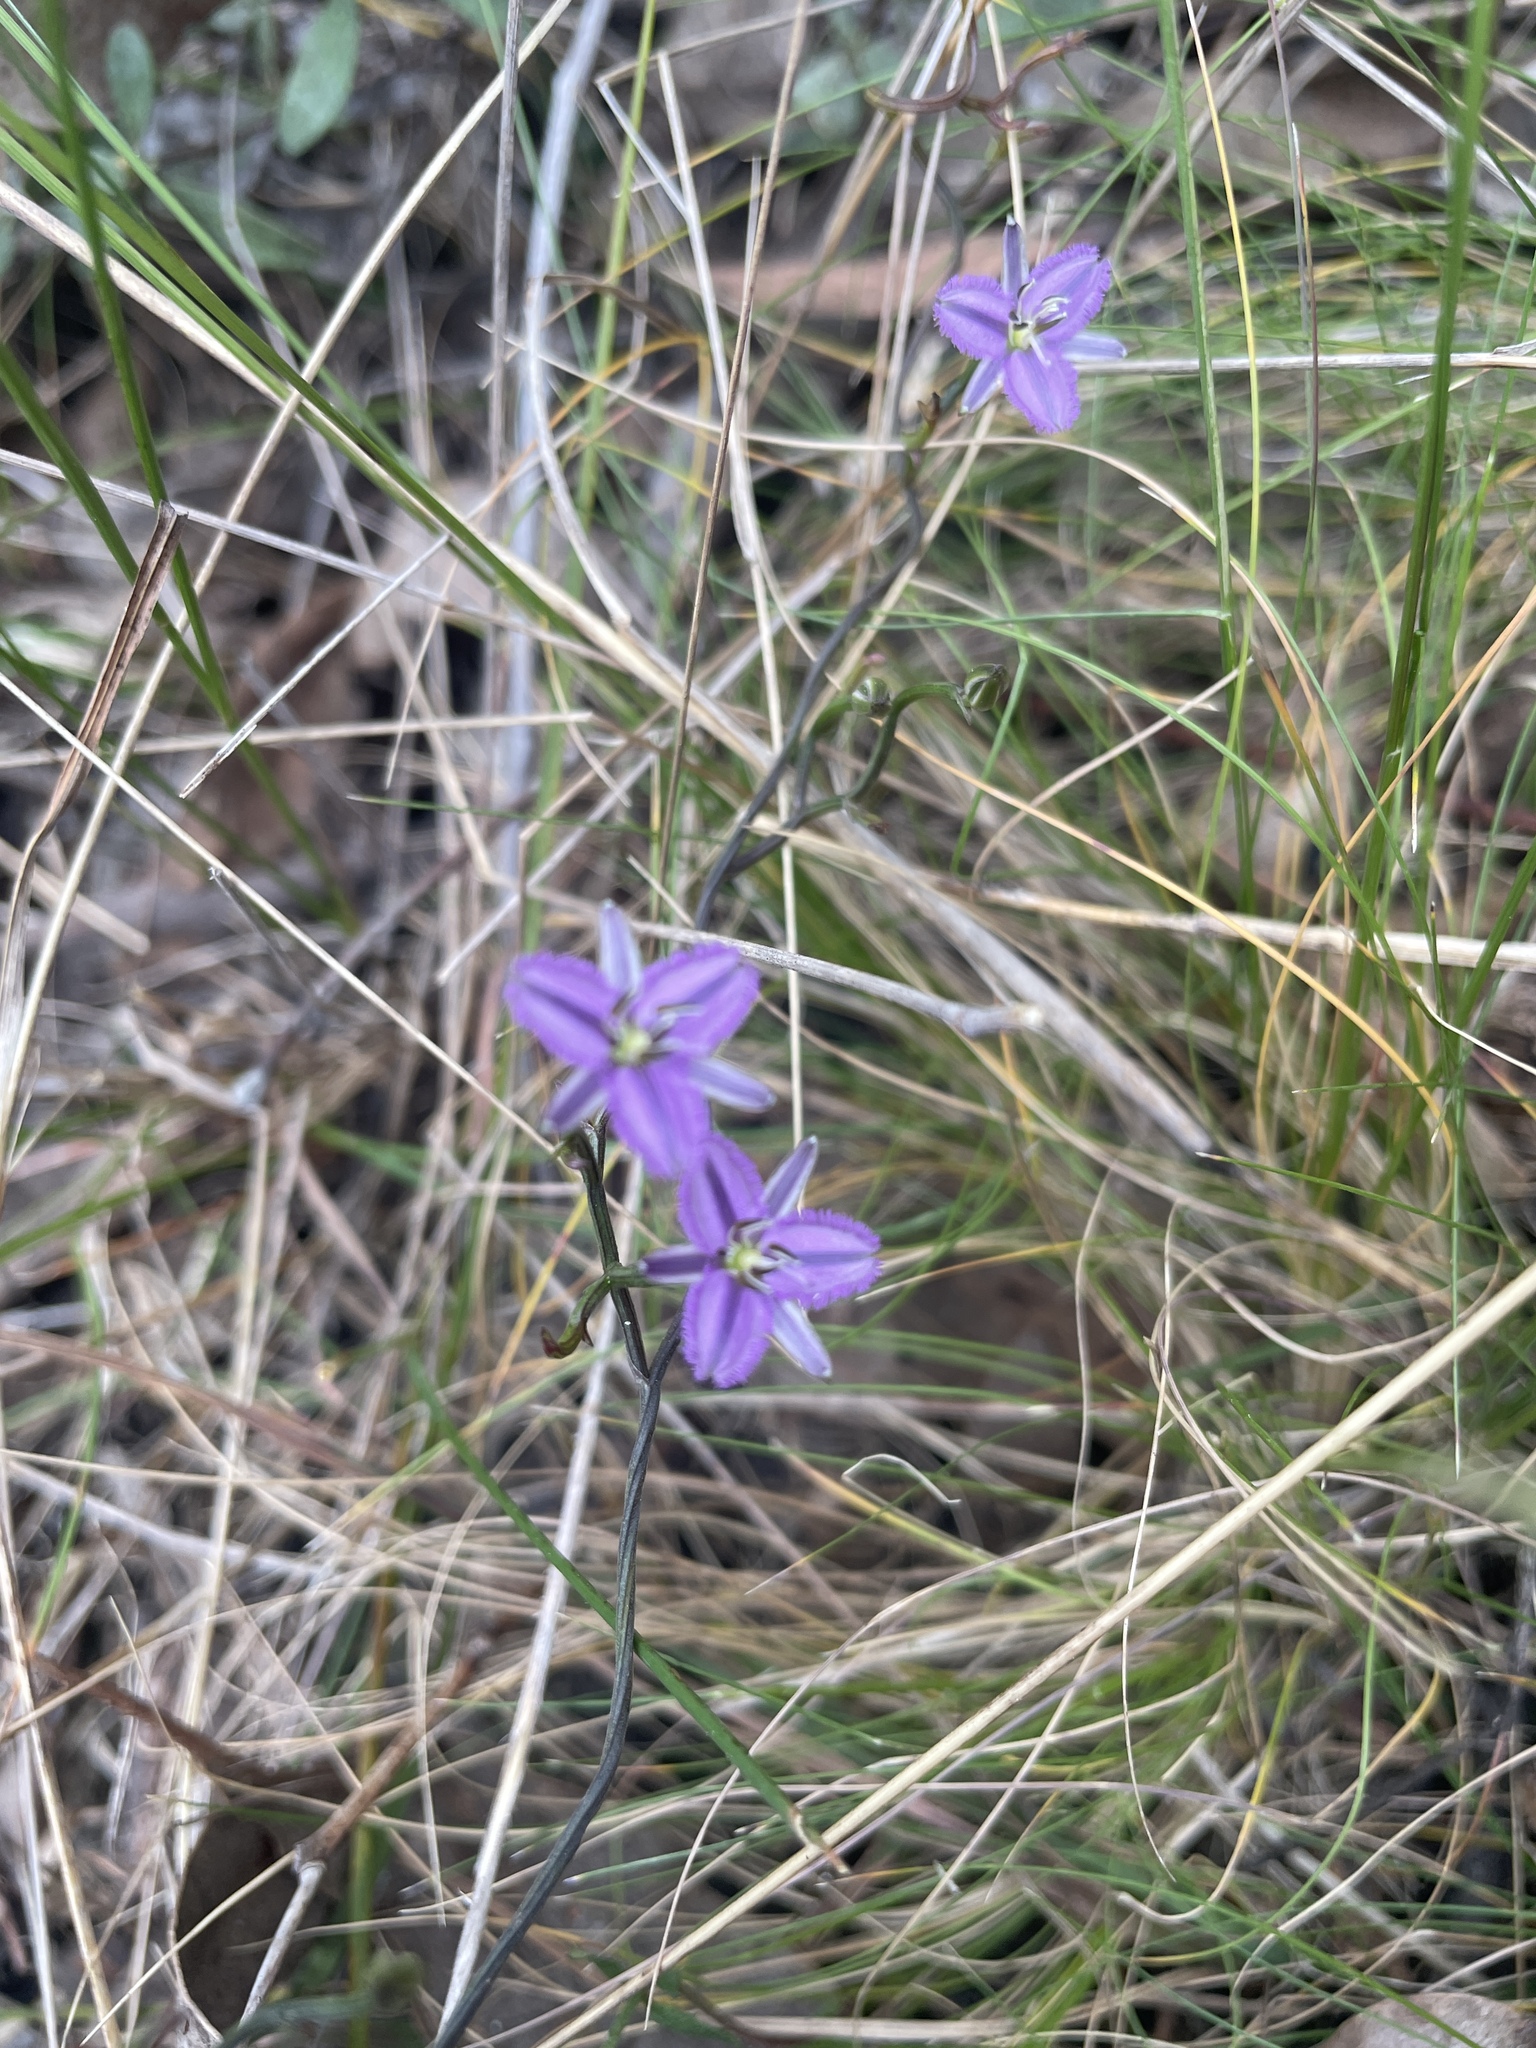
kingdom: Plantae
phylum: Tracheophyta
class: Liliopsida
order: Asparagales
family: Asparagaceae
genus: Thysanotus
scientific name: Thysanotus patersonii
